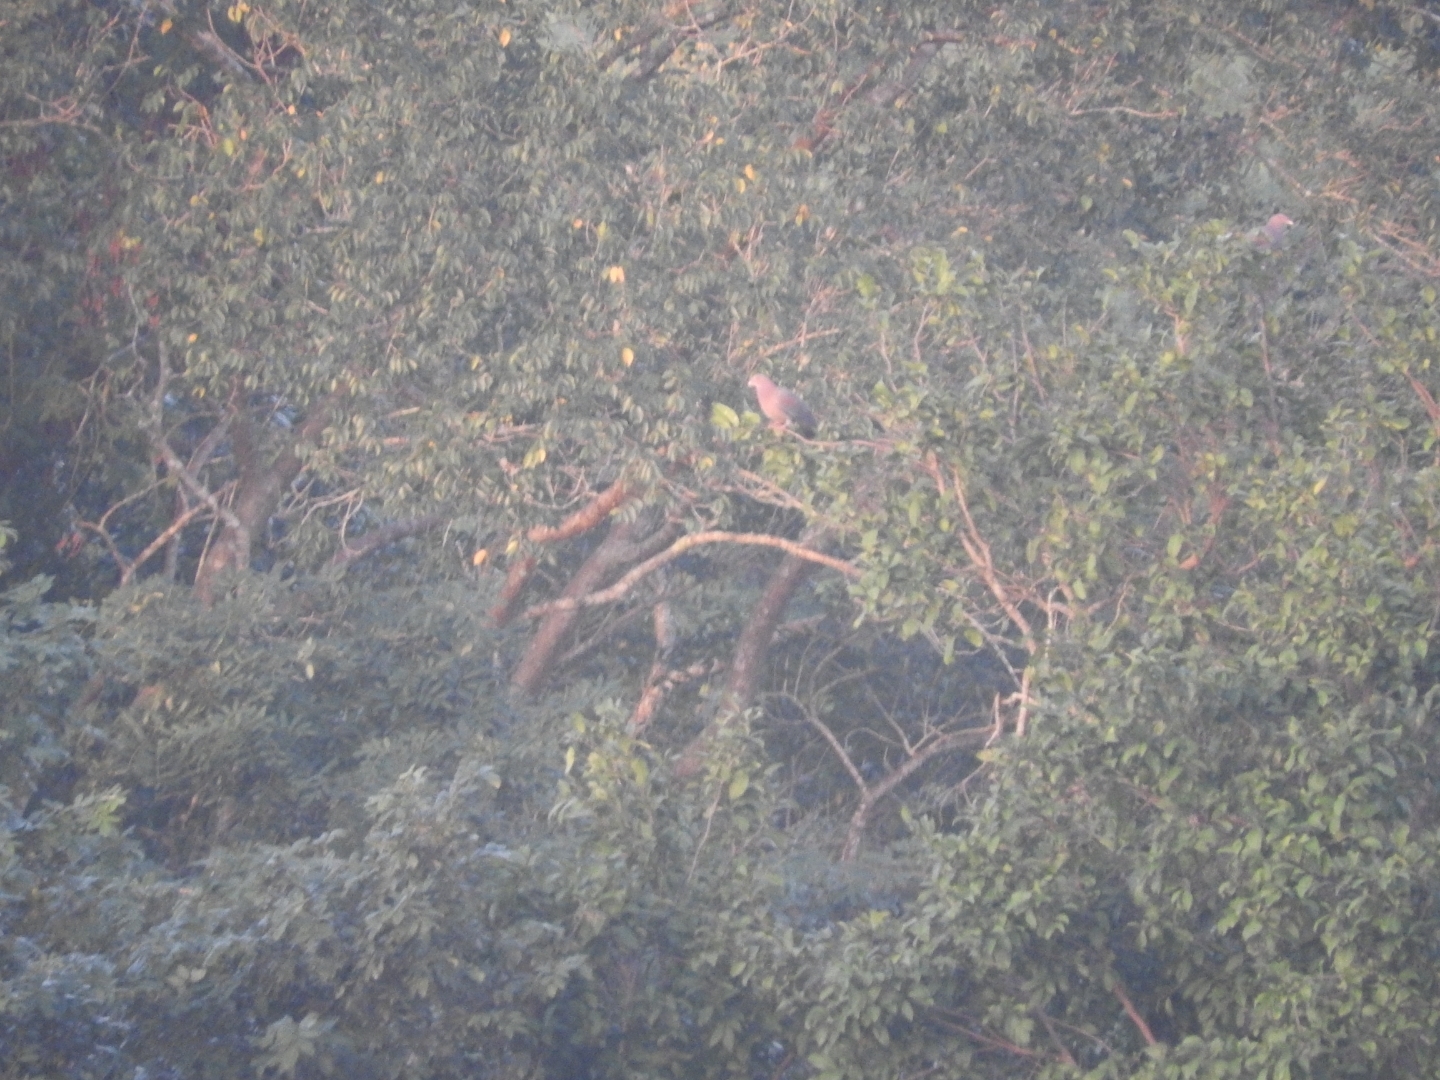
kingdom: Animalia
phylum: Chordata
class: Aves
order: Columbiformes
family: Columbidae
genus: Patagioenas
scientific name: Patagioenas flavirostris
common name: Red-billed pigeon
